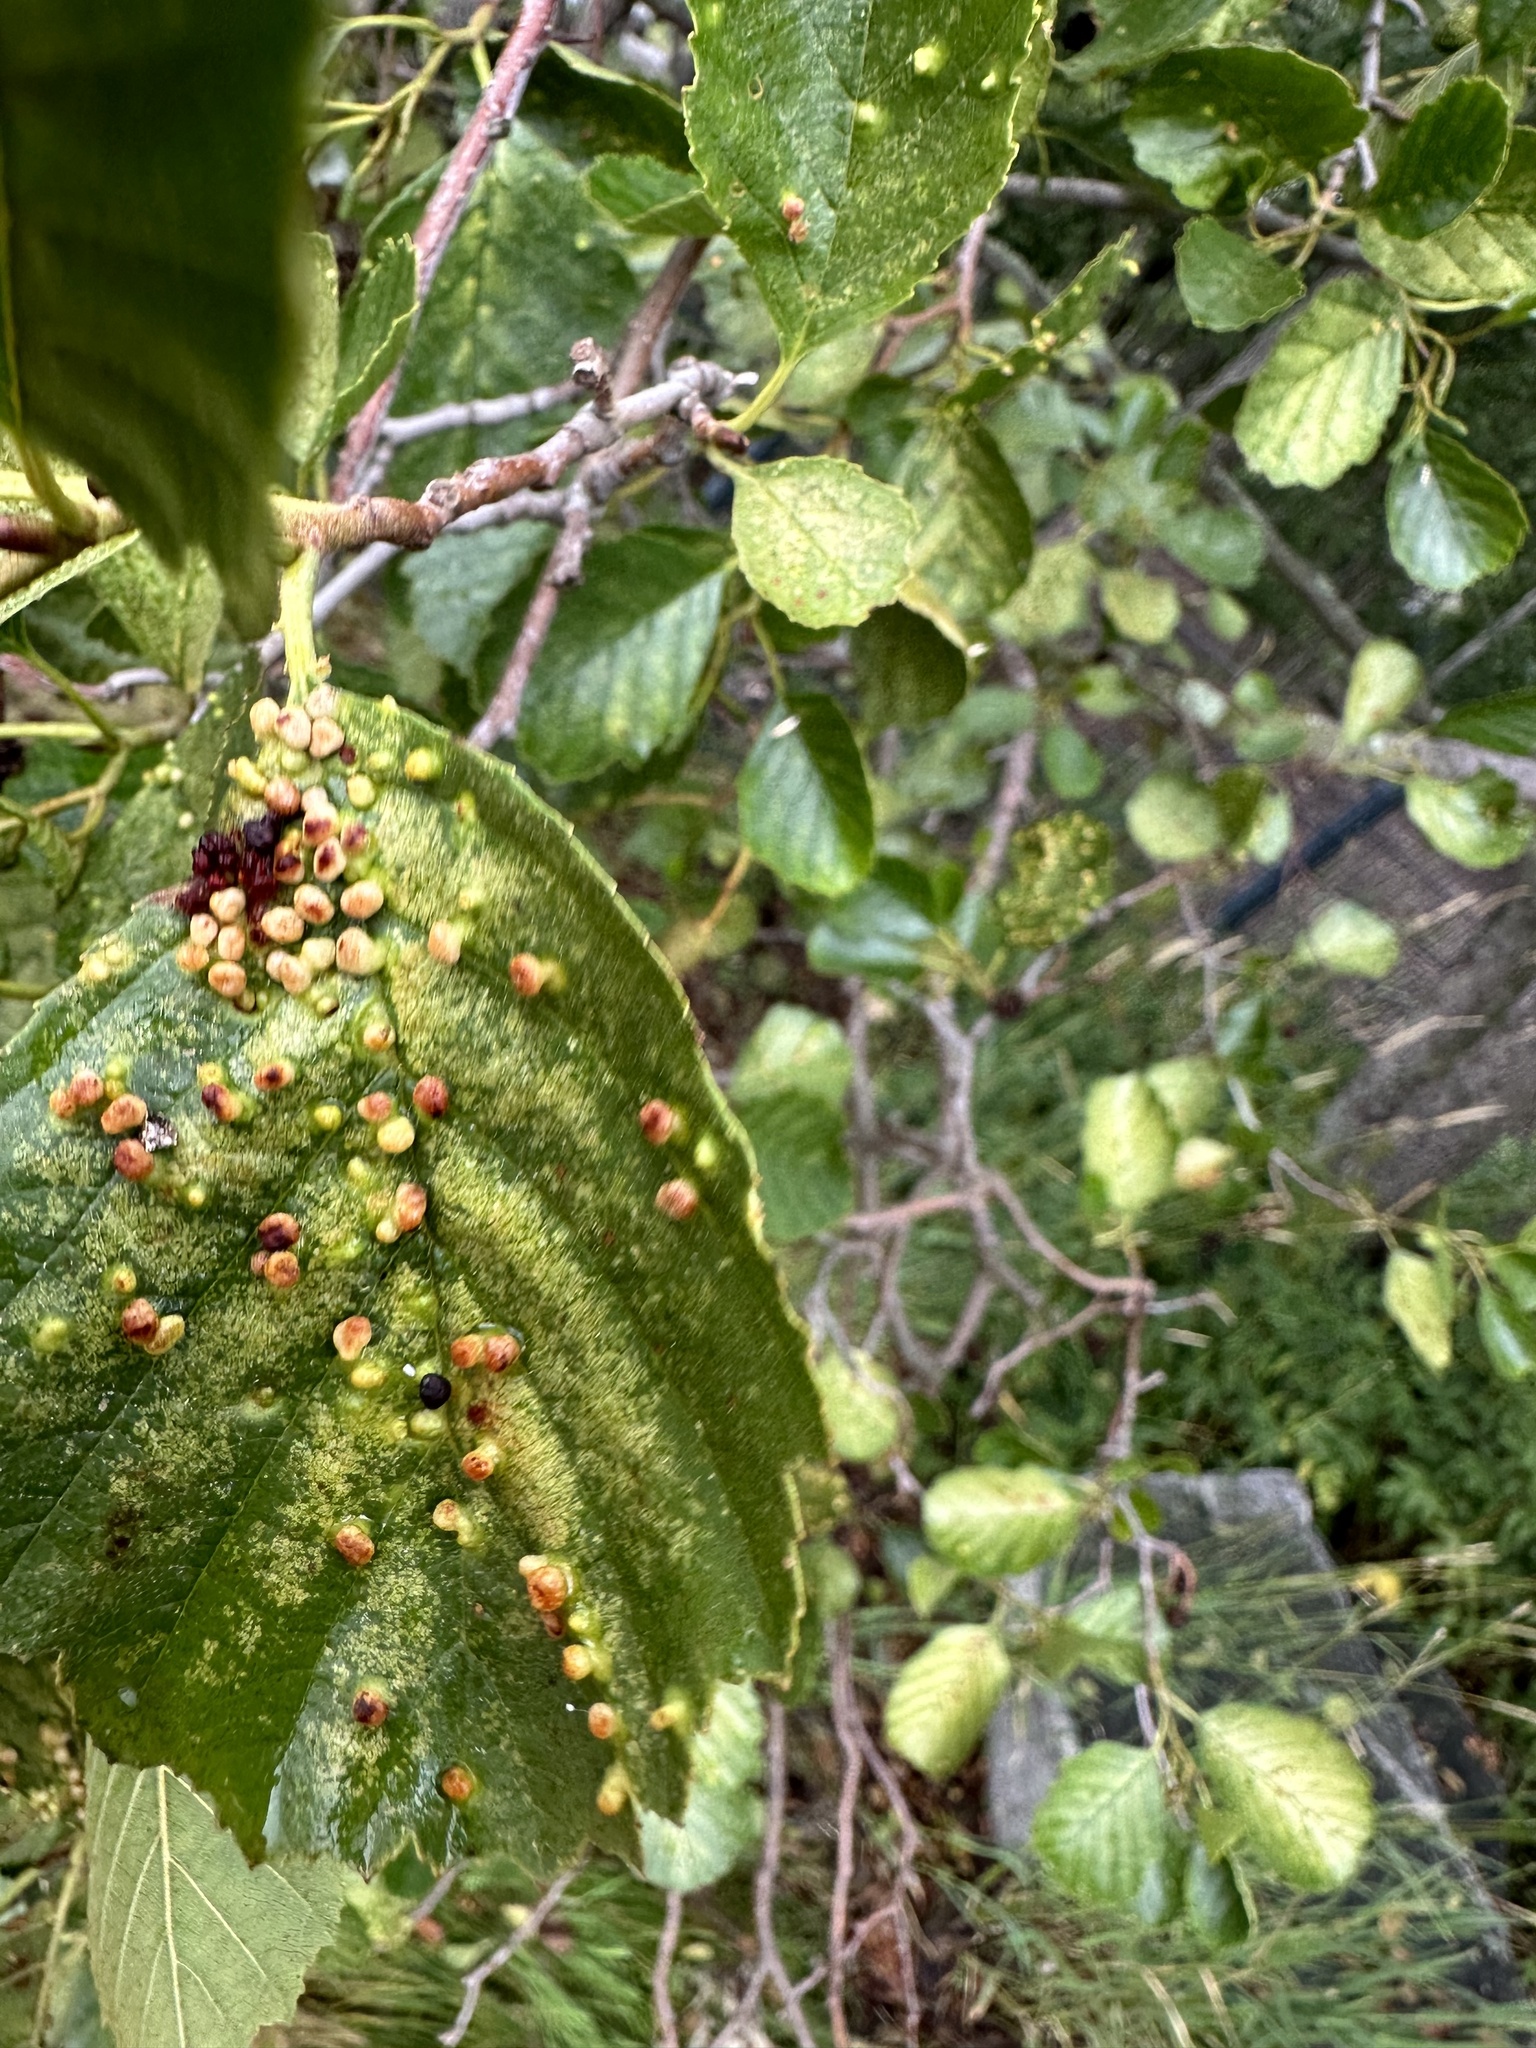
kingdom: Animalia
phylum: Arthropoda
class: Arachnida
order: Trombidiformes
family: Eriophyidae
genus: Eriophyes
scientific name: Eriophyes laevis
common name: Alder leaf gall mite
